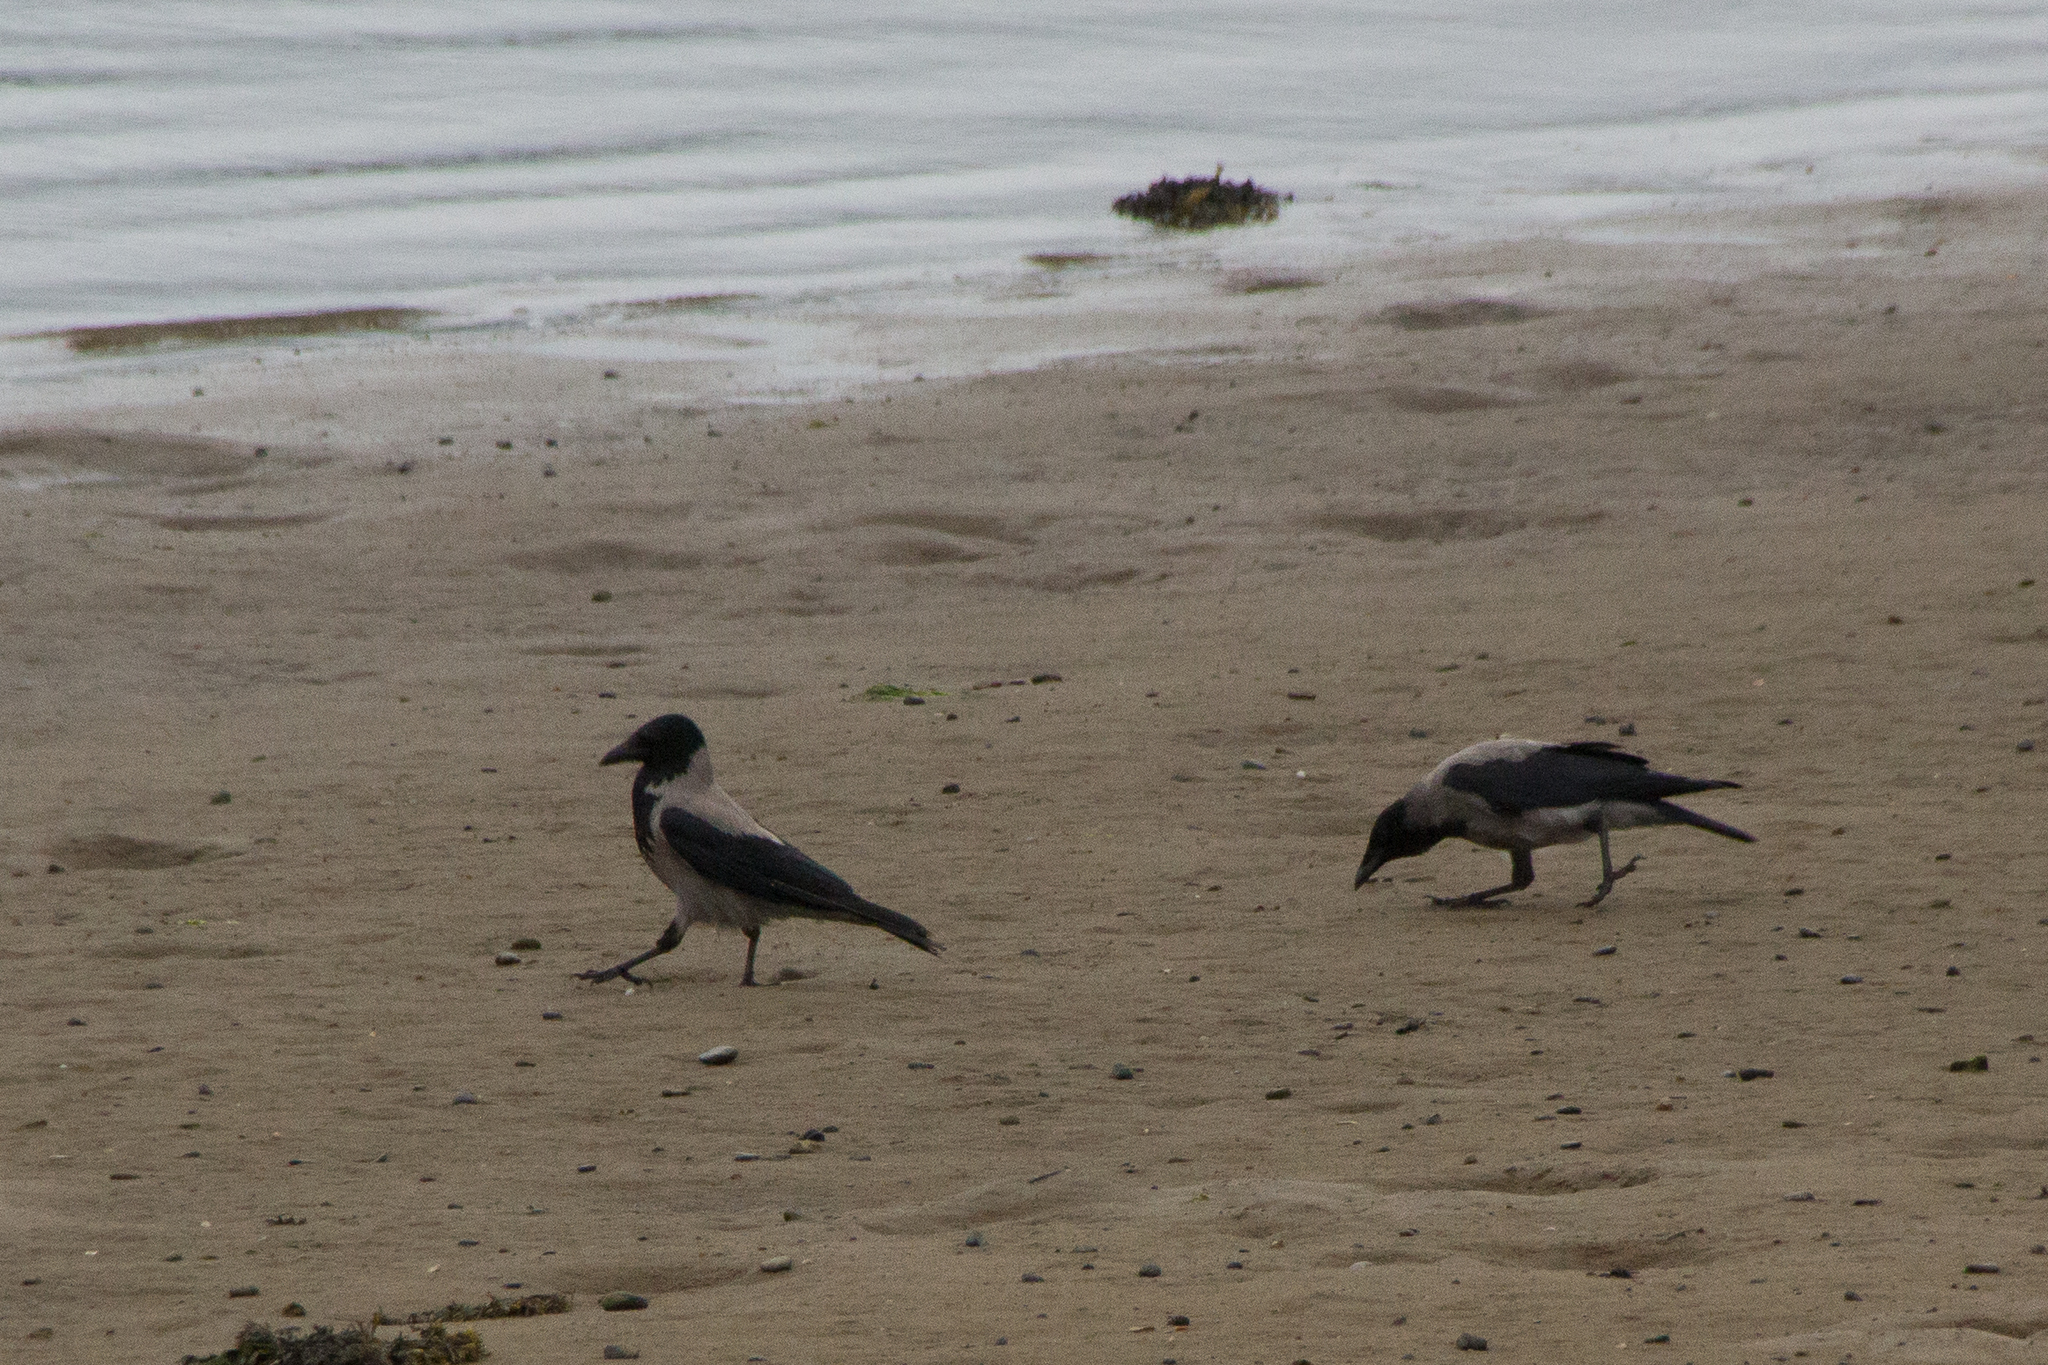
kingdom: Animalia
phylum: Chordata
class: Aves
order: Passeriformes
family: Corvidae
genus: Corvus
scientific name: Corvus cornix
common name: Hooded crow
